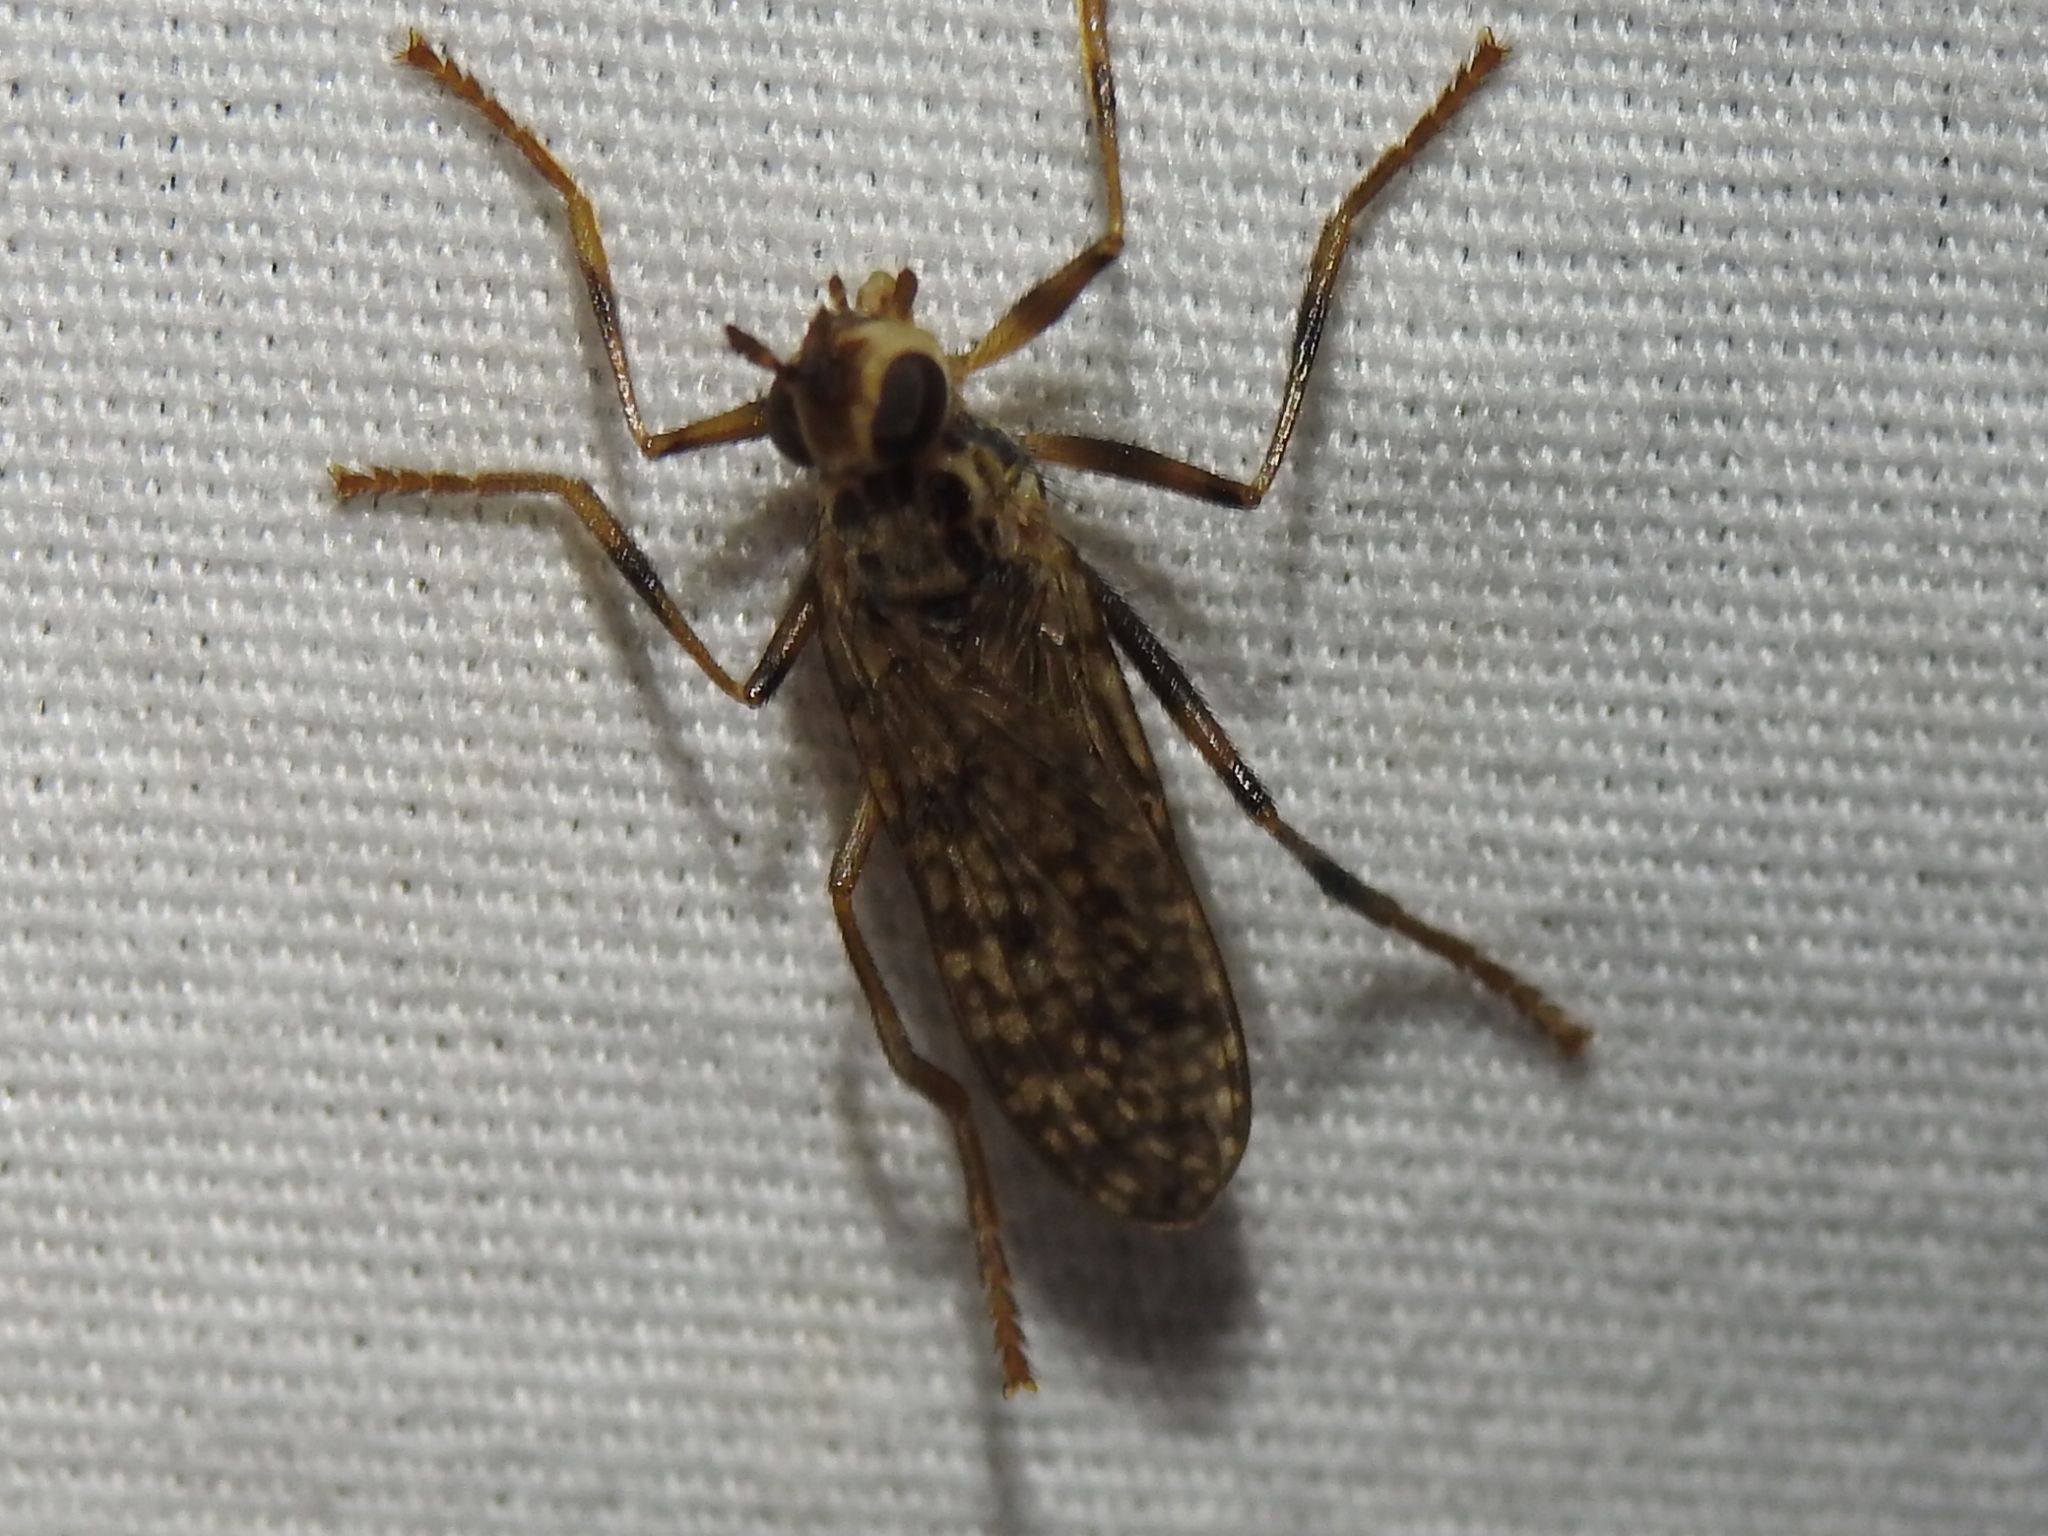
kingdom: Animalia
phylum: Arthropoda
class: Insecta
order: Diptera
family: Pyrgotidae
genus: Boreothrinax
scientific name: Boreothrinax
